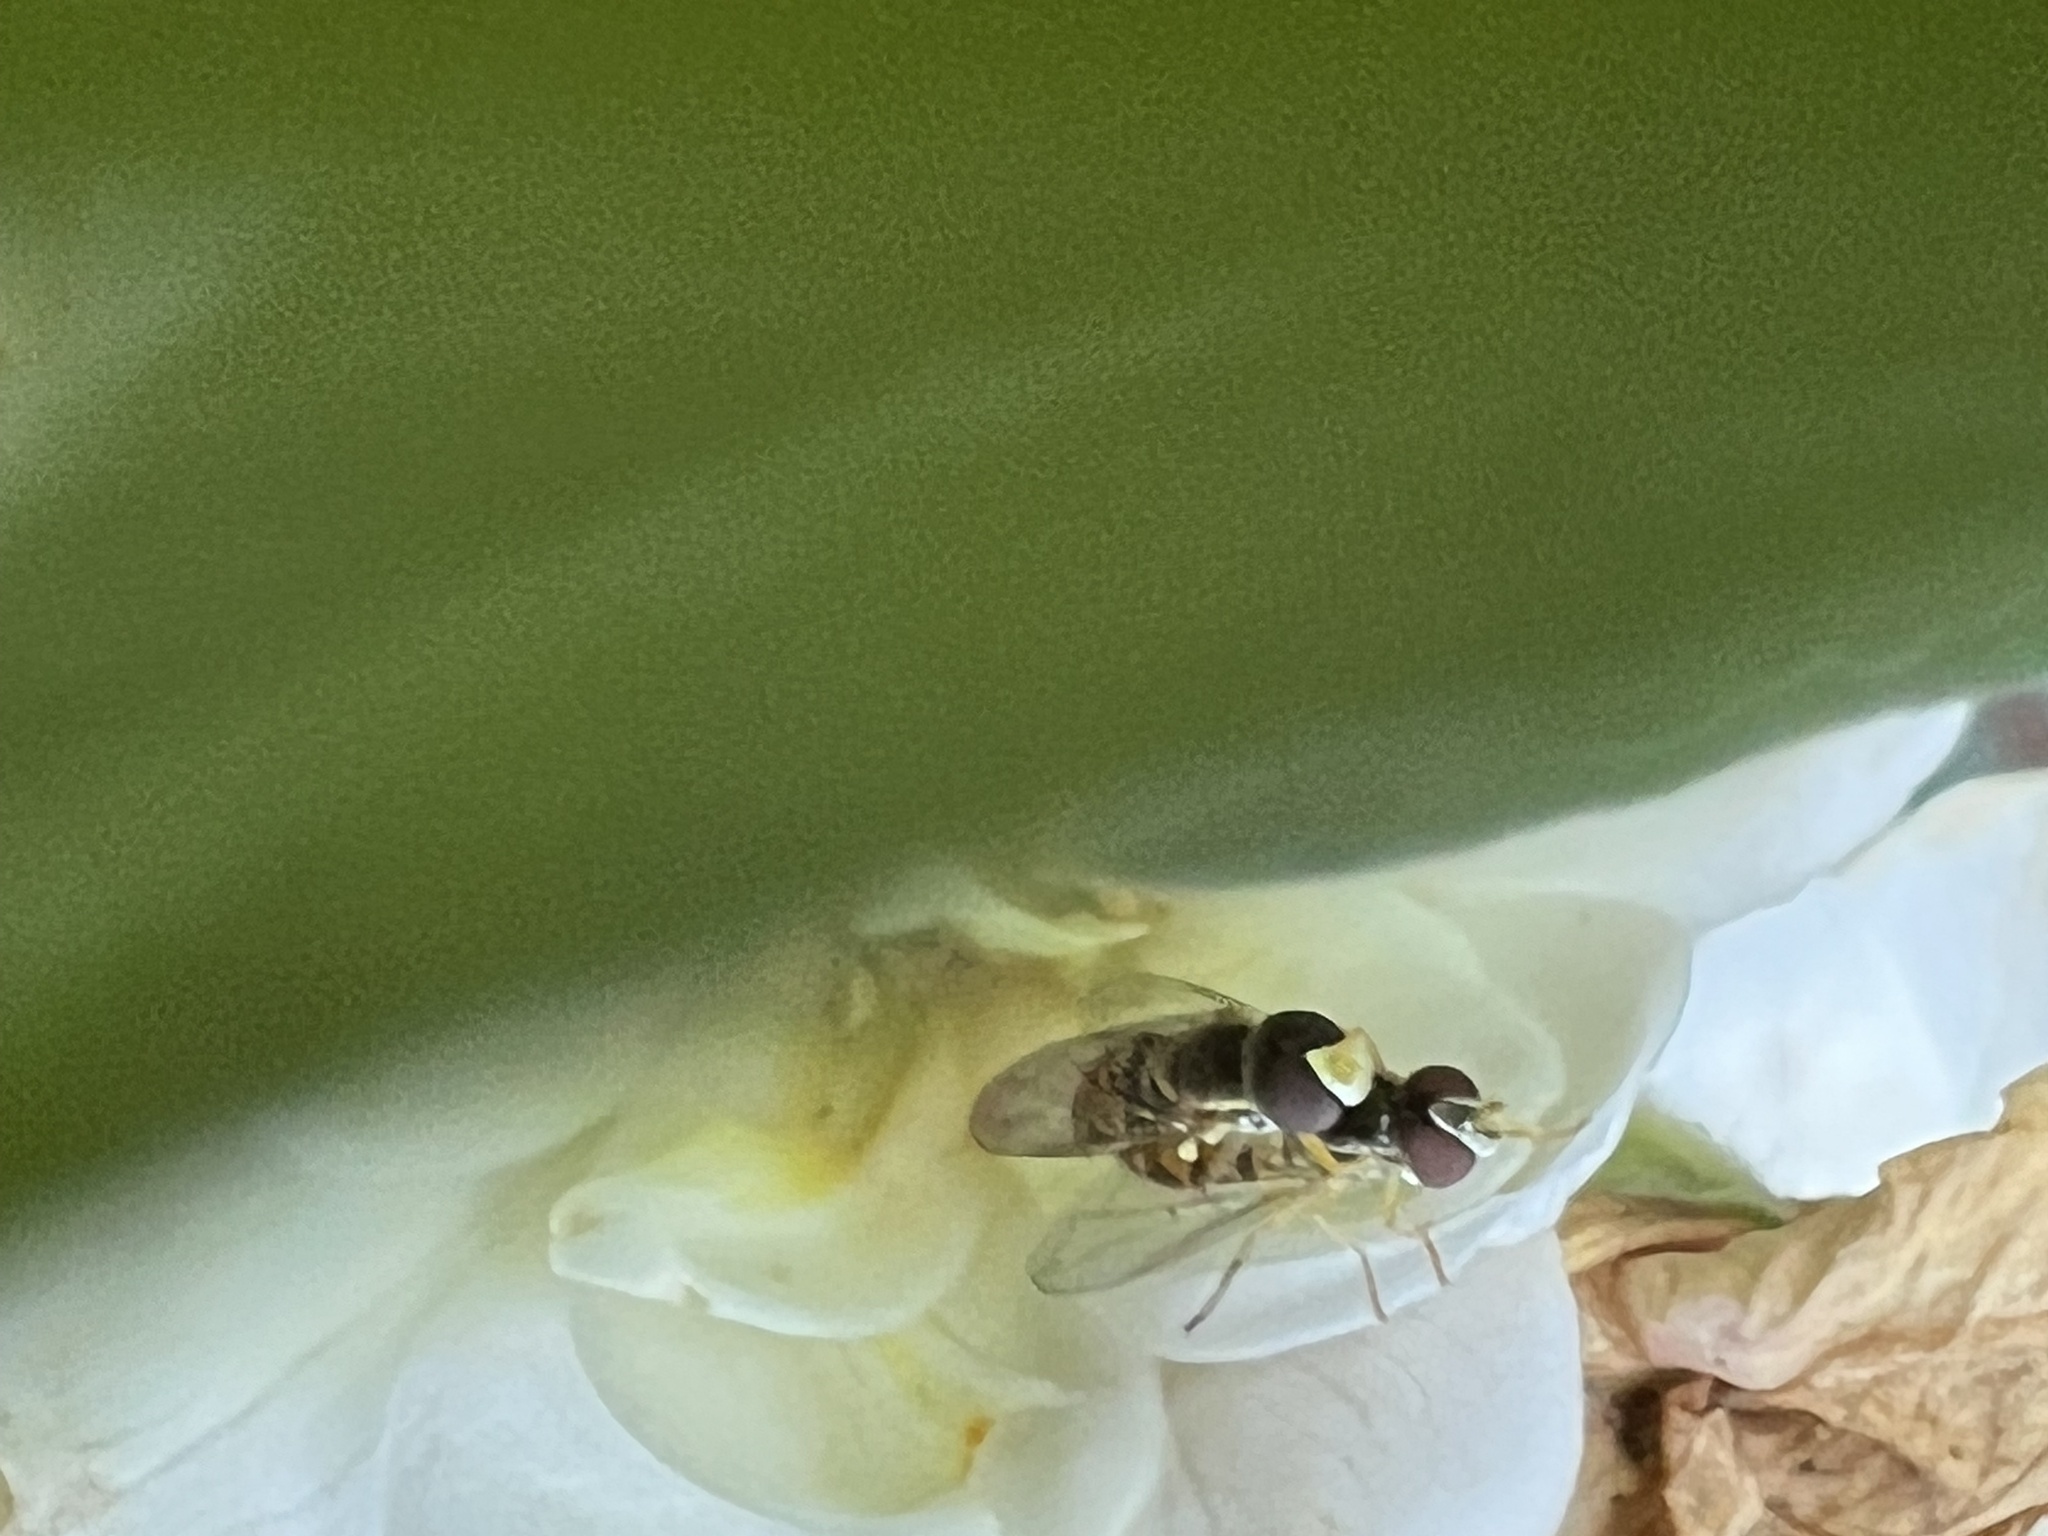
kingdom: Animalia
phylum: Arthropoda
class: Insecta
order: Diptera
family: Syrphidae
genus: Toxomerus
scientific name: Toxomerus marginatus
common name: Syrphid fly
